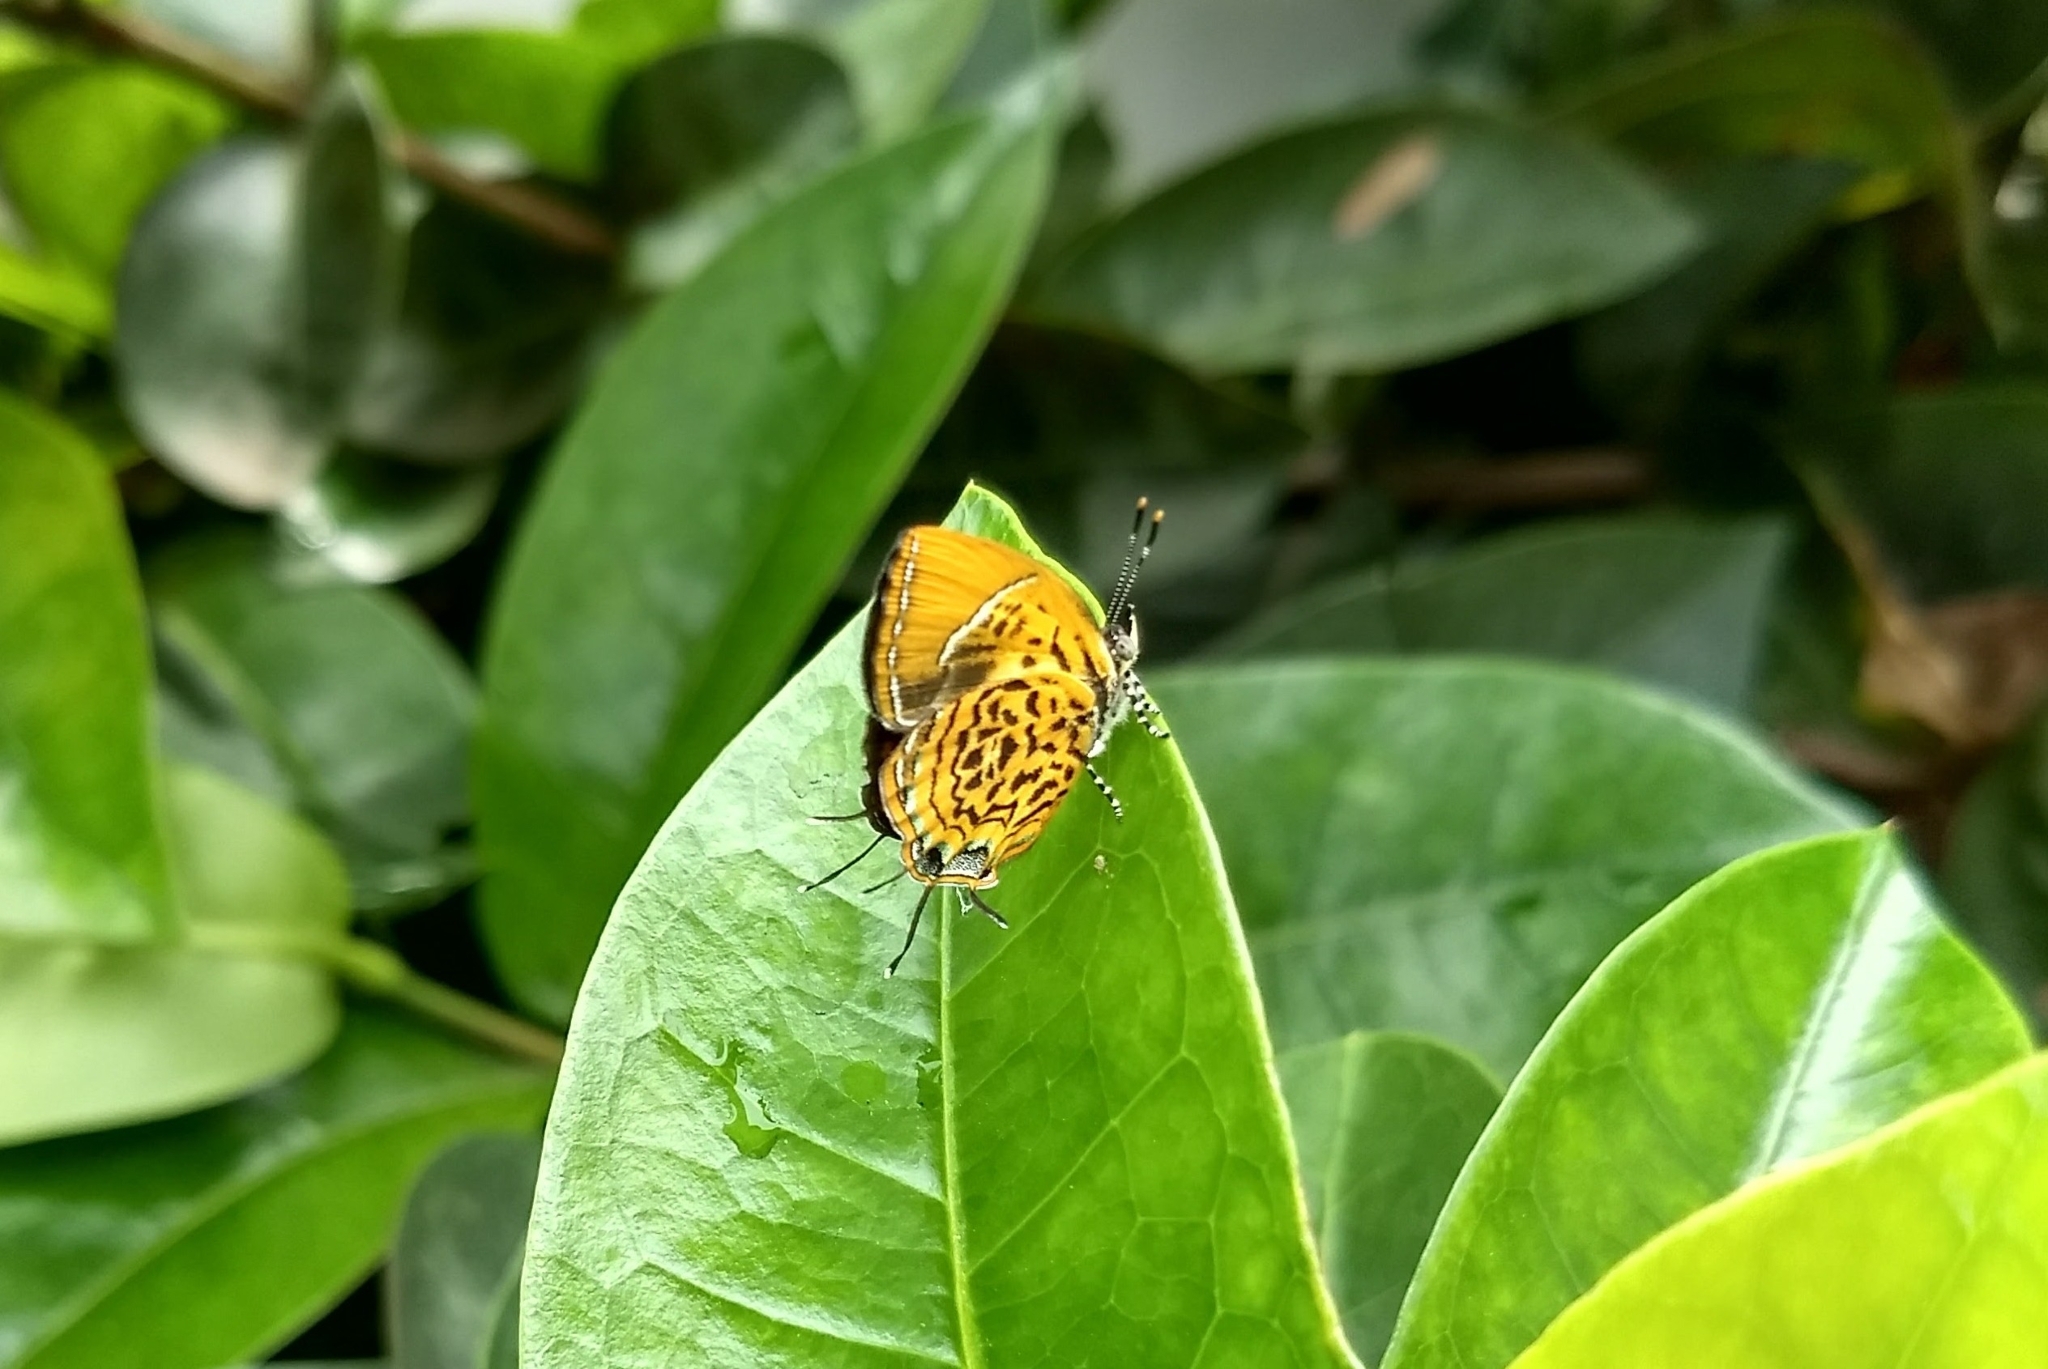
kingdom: Animalia
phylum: Arthropoda
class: Insecta
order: Lepidoptera
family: Lycaenidae
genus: Rathinda
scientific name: Rathinda amor
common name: Monkey puzzle
